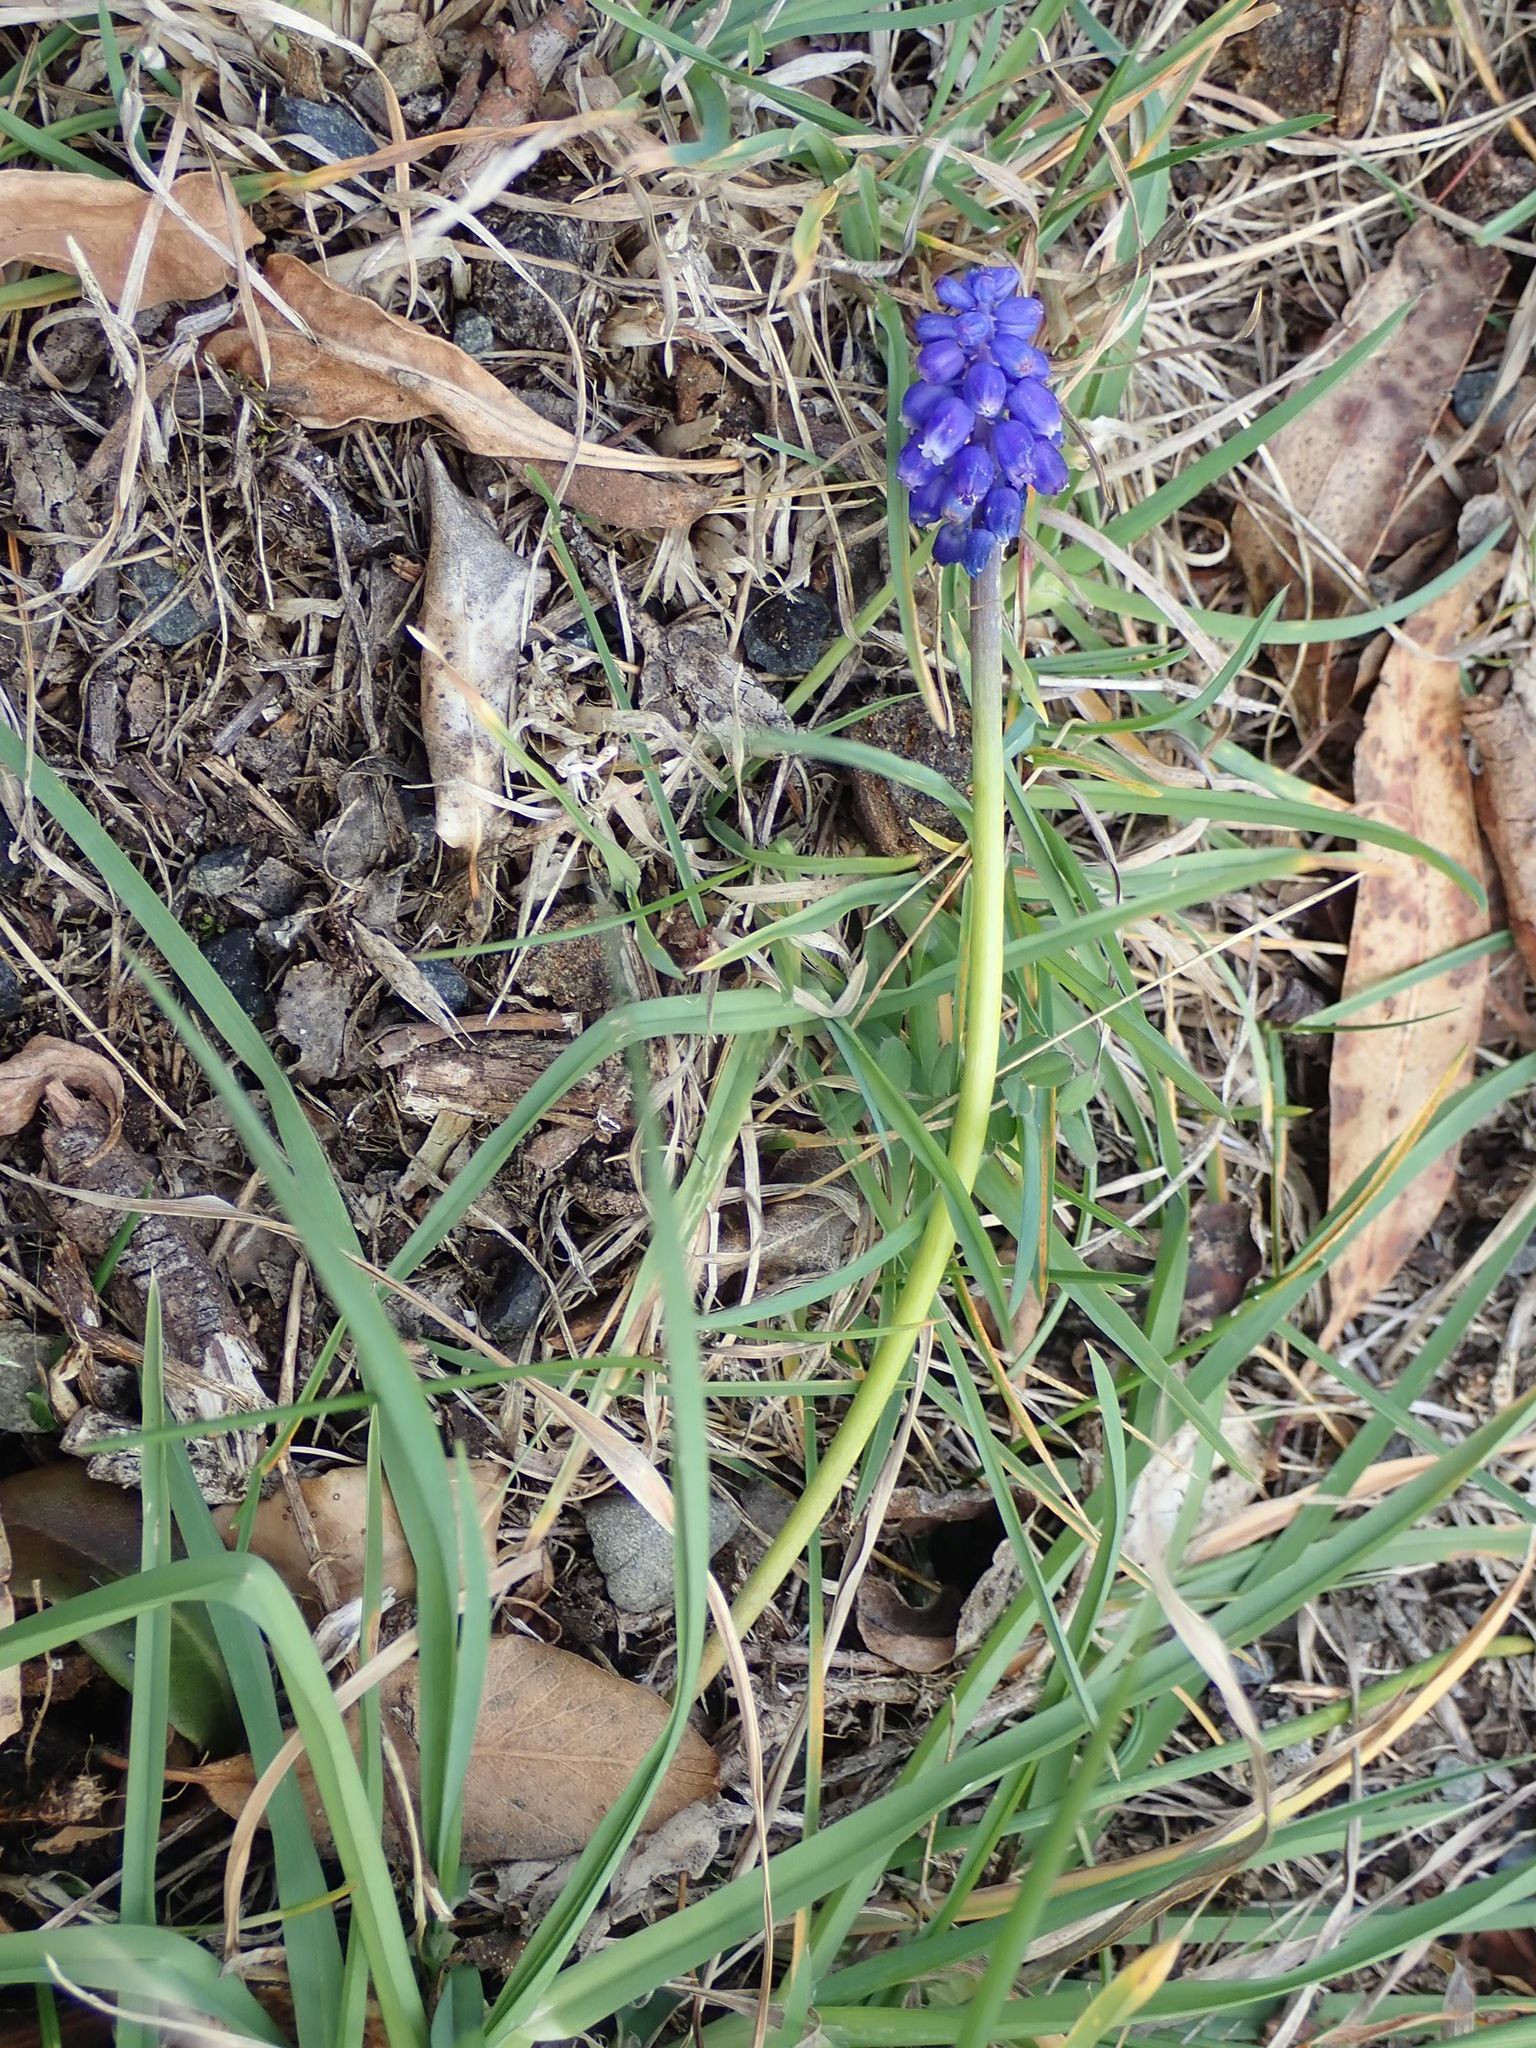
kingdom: Plantae
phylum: Tracheophyta
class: Liliopsida
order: Asparagales
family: Asparagaceae
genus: Muscari
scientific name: Muscari armeniacum
